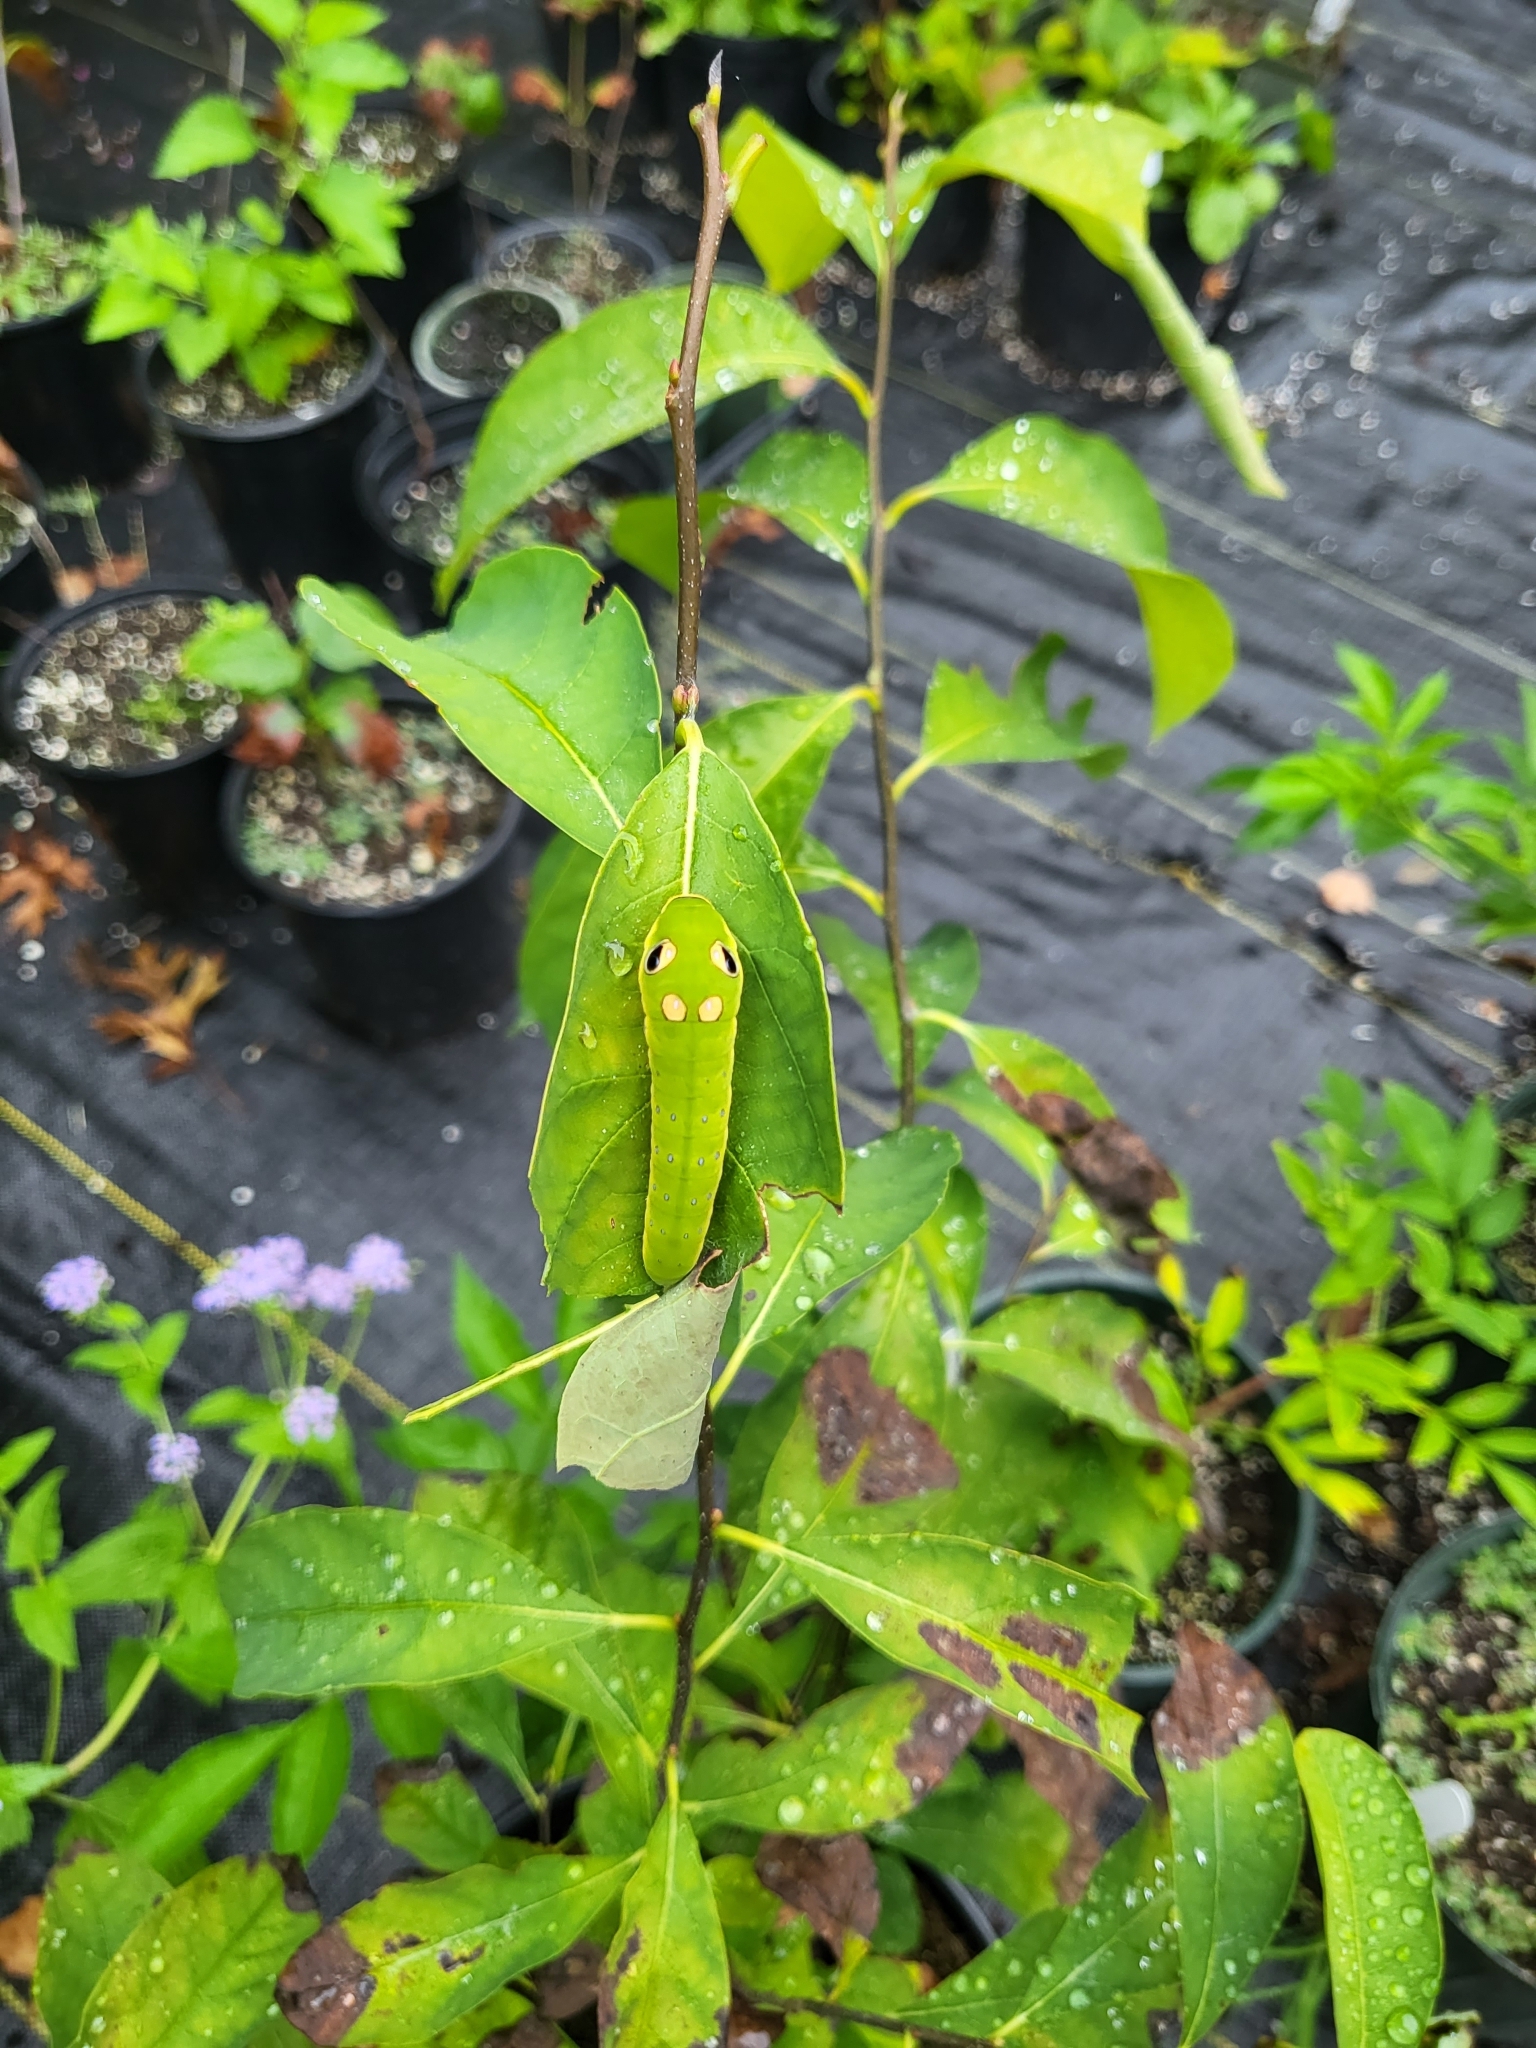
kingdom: Animalia
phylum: Arthropoda
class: Insecta
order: Lepidoptera
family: Papilionidae
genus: Papilio
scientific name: Papilio troilus
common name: Spicebush swallowtail
